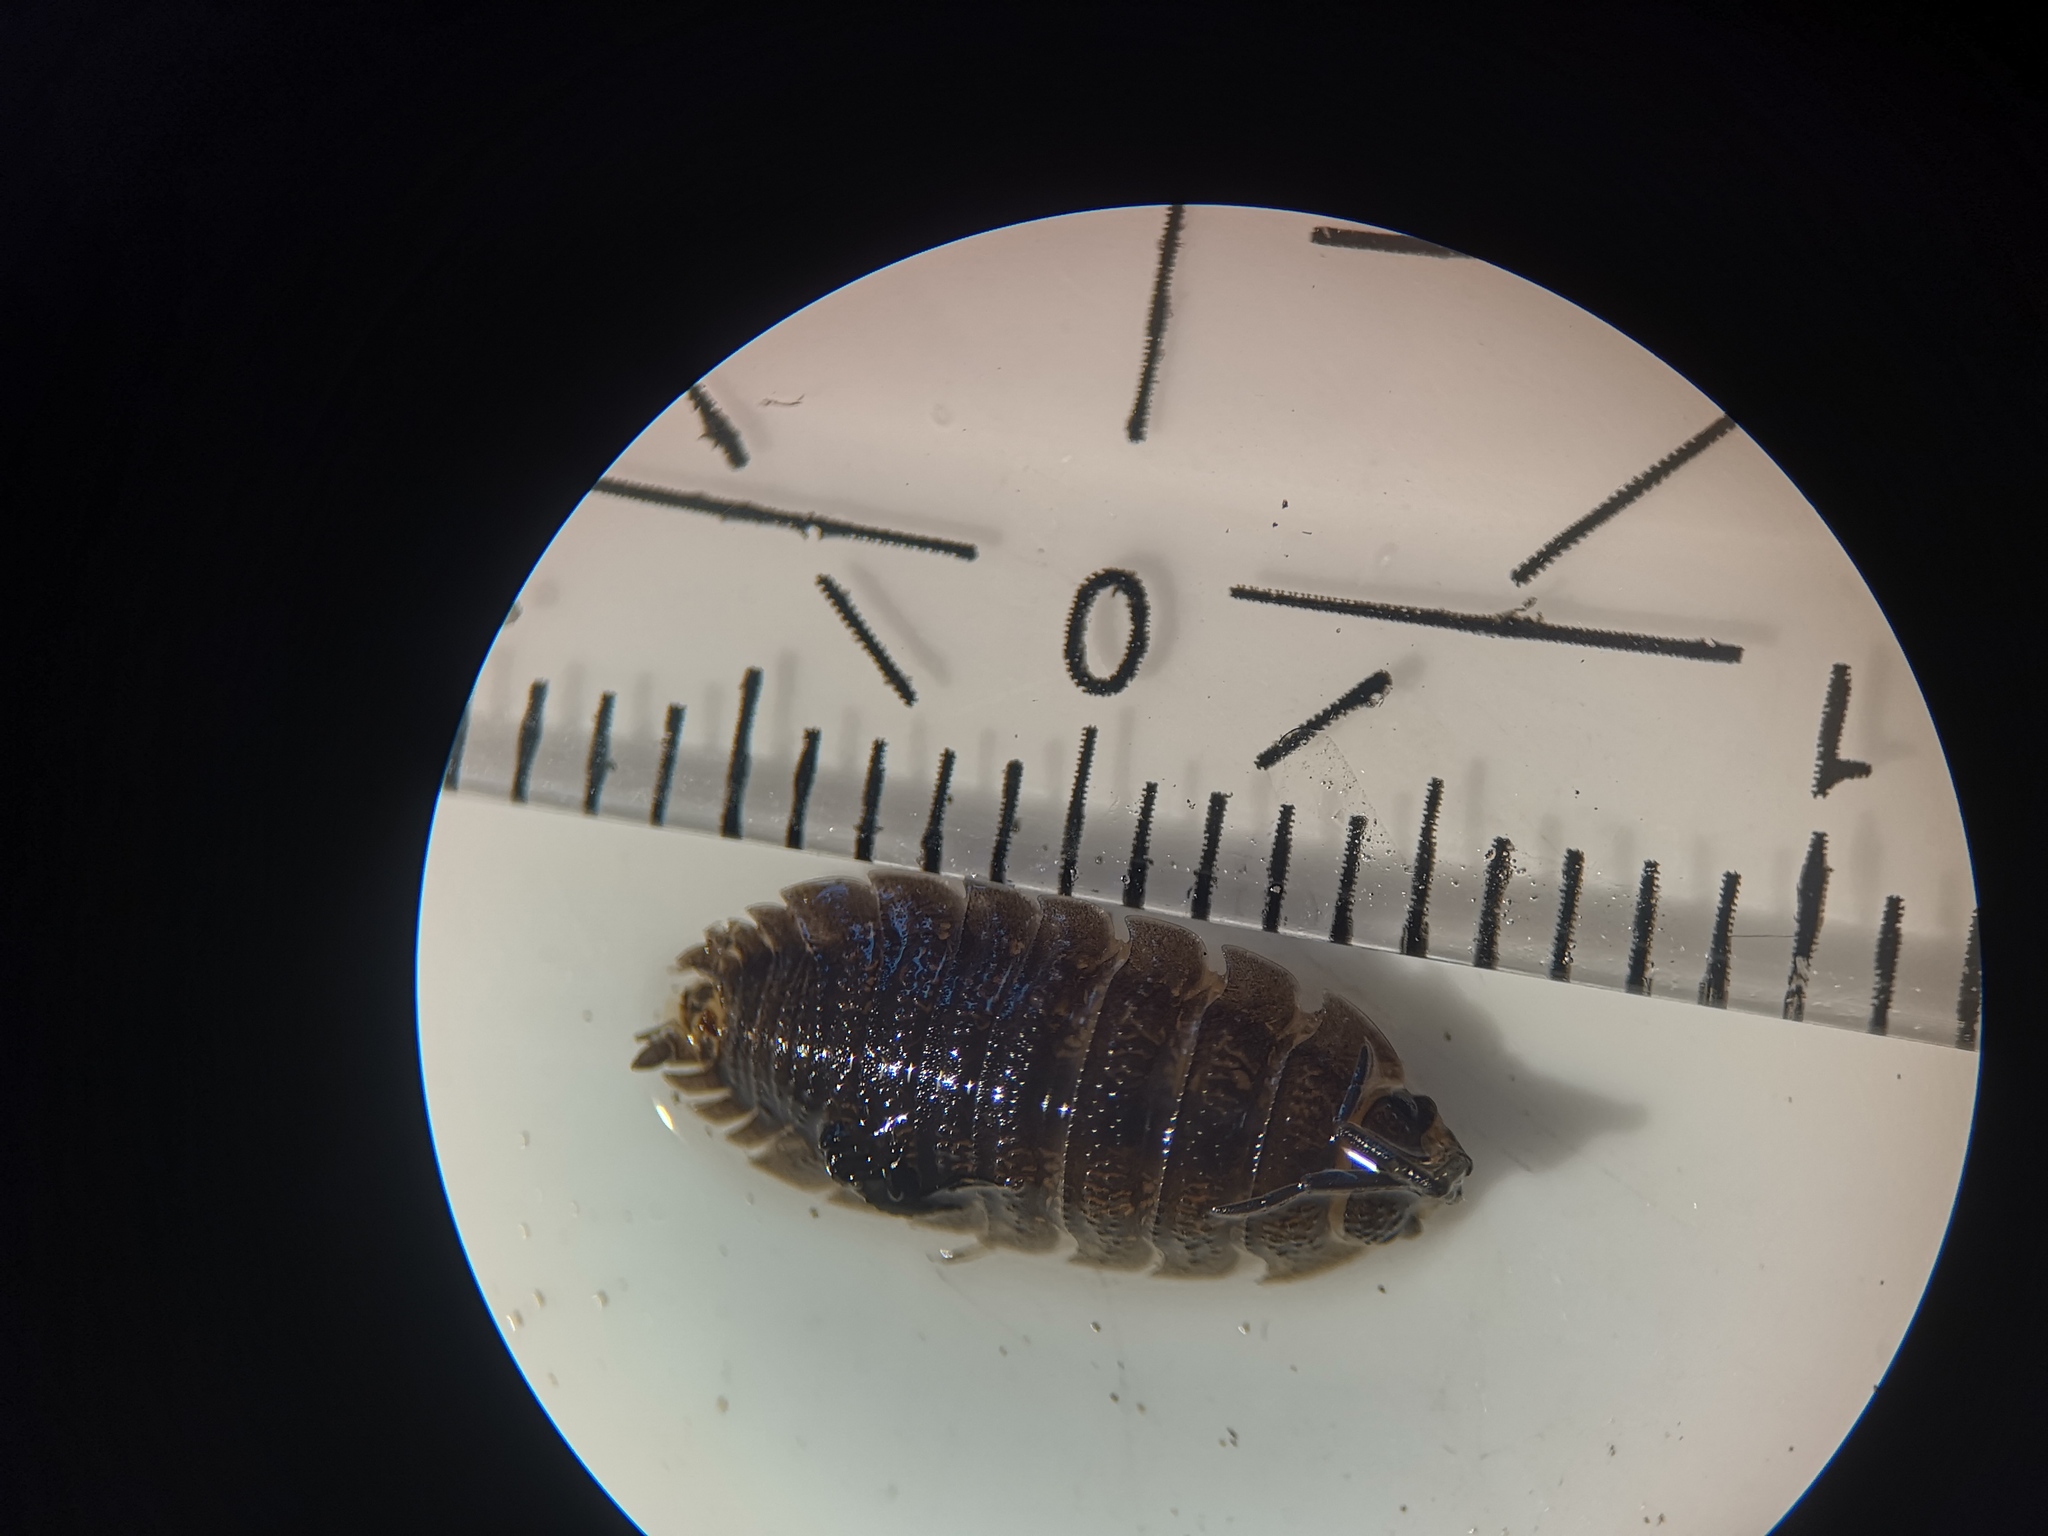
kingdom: Animalia
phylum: Arthropoda
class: Malacostraca
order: Isopoda
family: Porcellionidae
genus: Porcellio
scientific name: Porcellio scaber
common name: Common rough woodlouse
